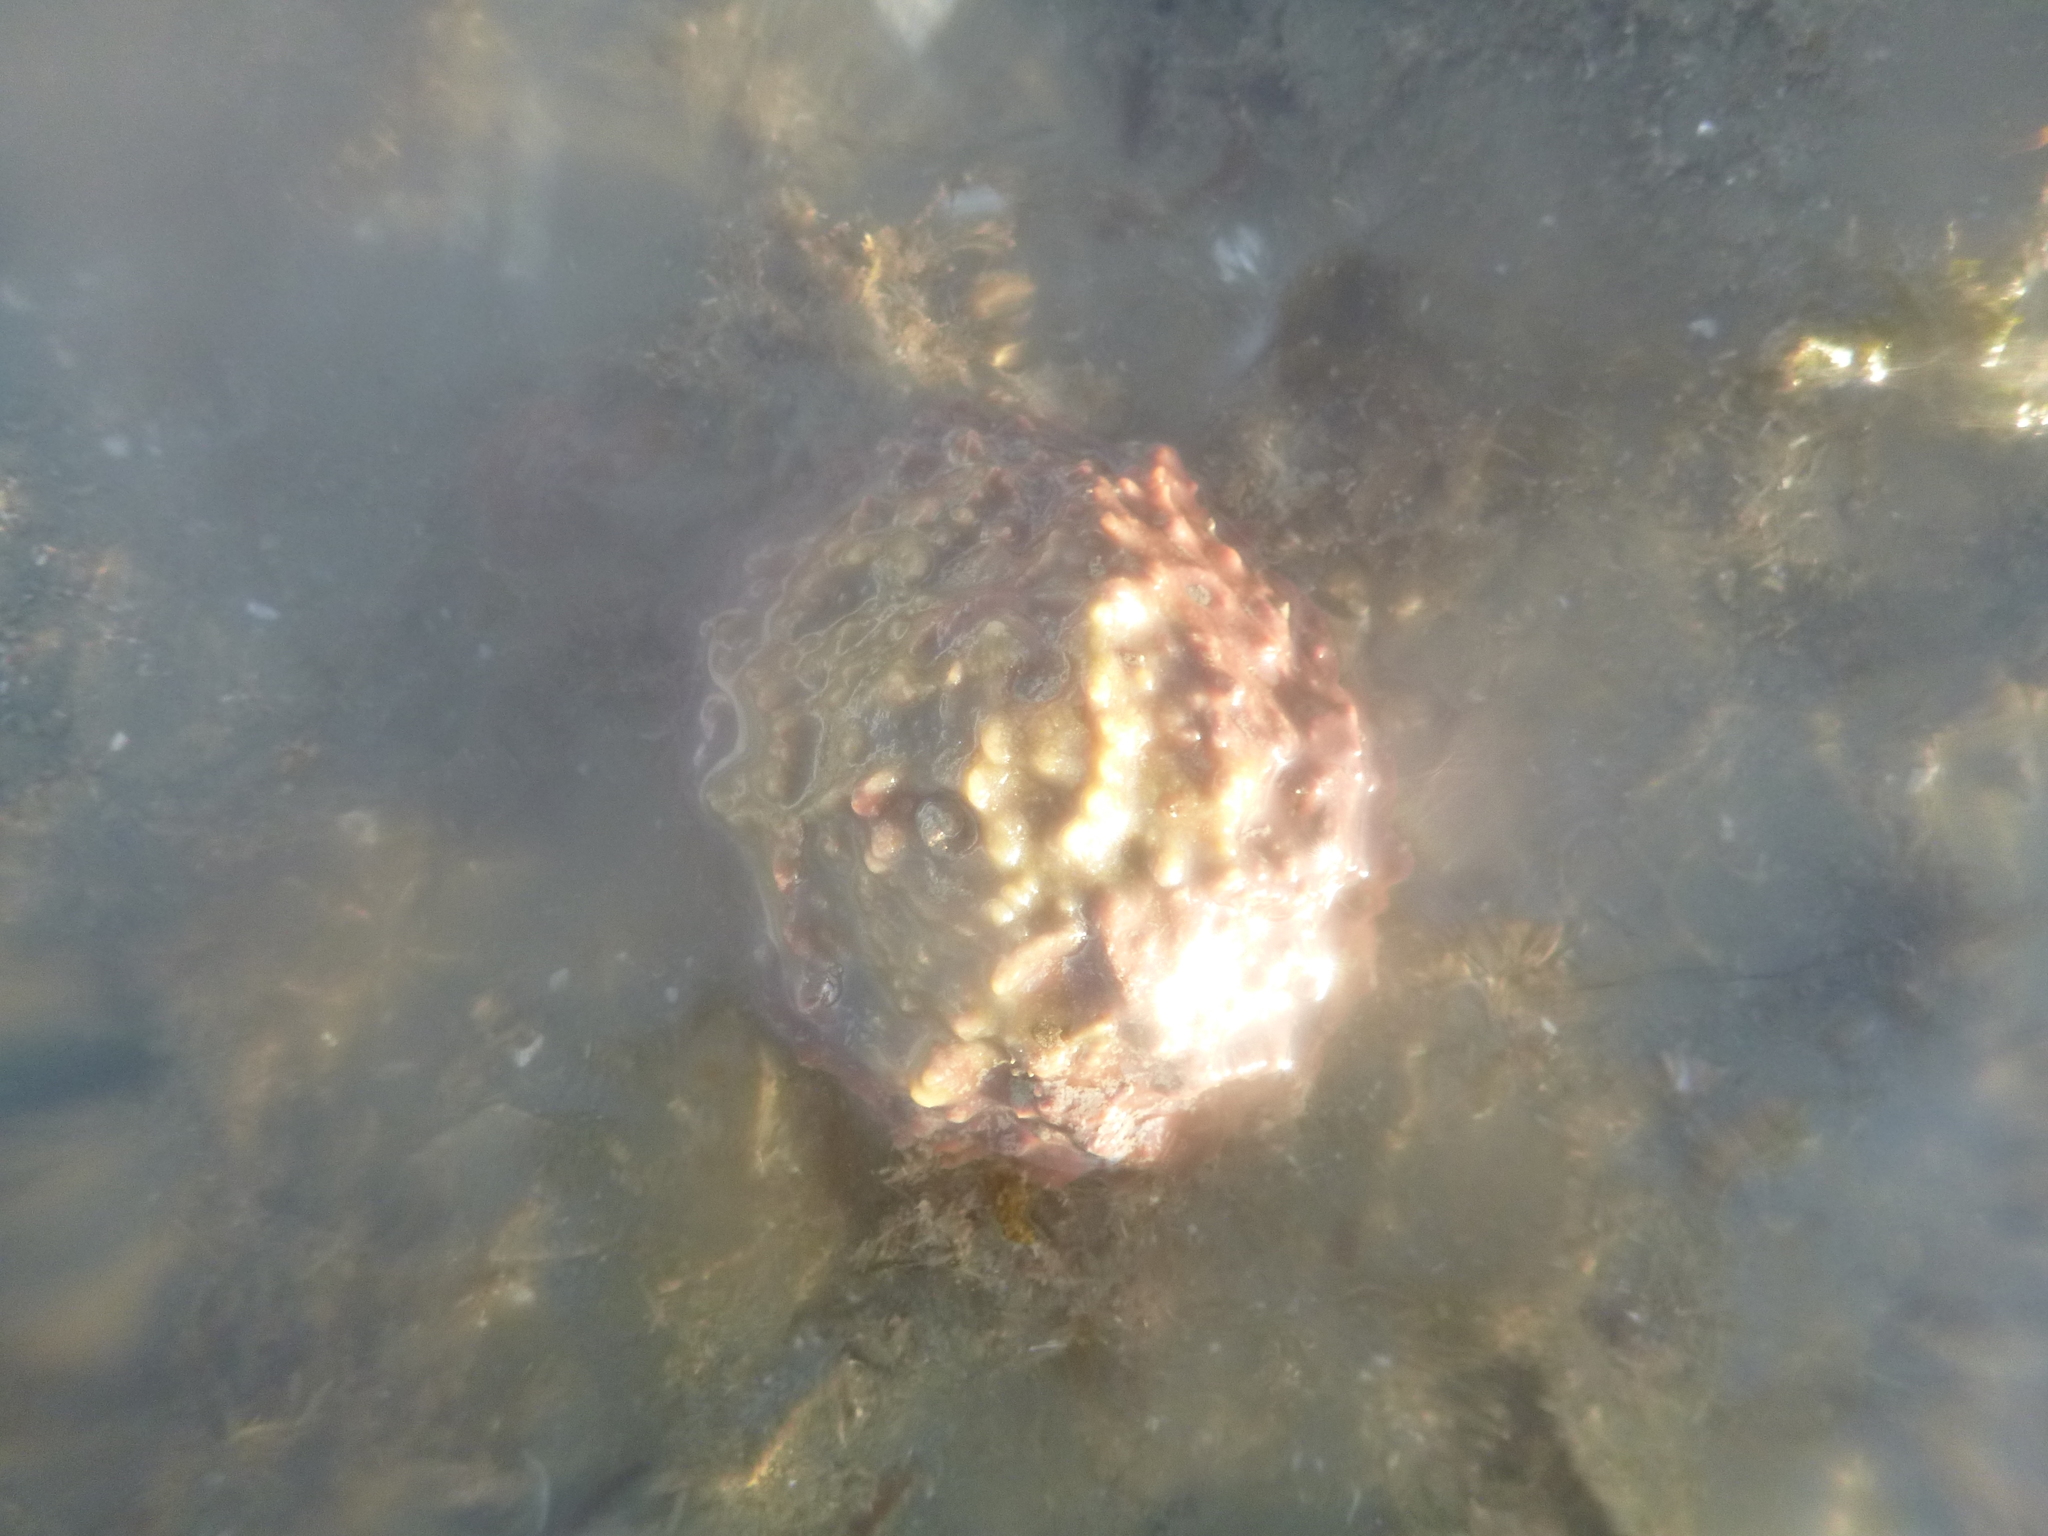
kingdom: Animalia
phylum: Porifera
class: Demospongiae
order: Suberitida
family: Suberitidae
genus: Aaptos
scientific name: Aaptos tenta
